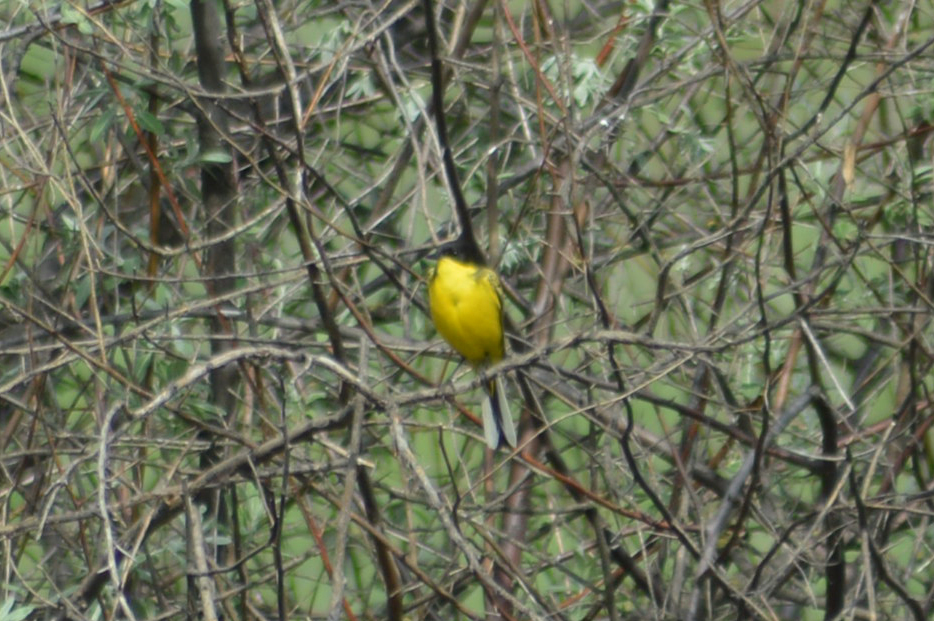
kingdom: Animalia
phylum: Chordata
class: Aves
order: Passeriformes
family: Motacillidae
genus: Motacilla
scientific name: Motacilla flava
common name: Western yellow wagtail
